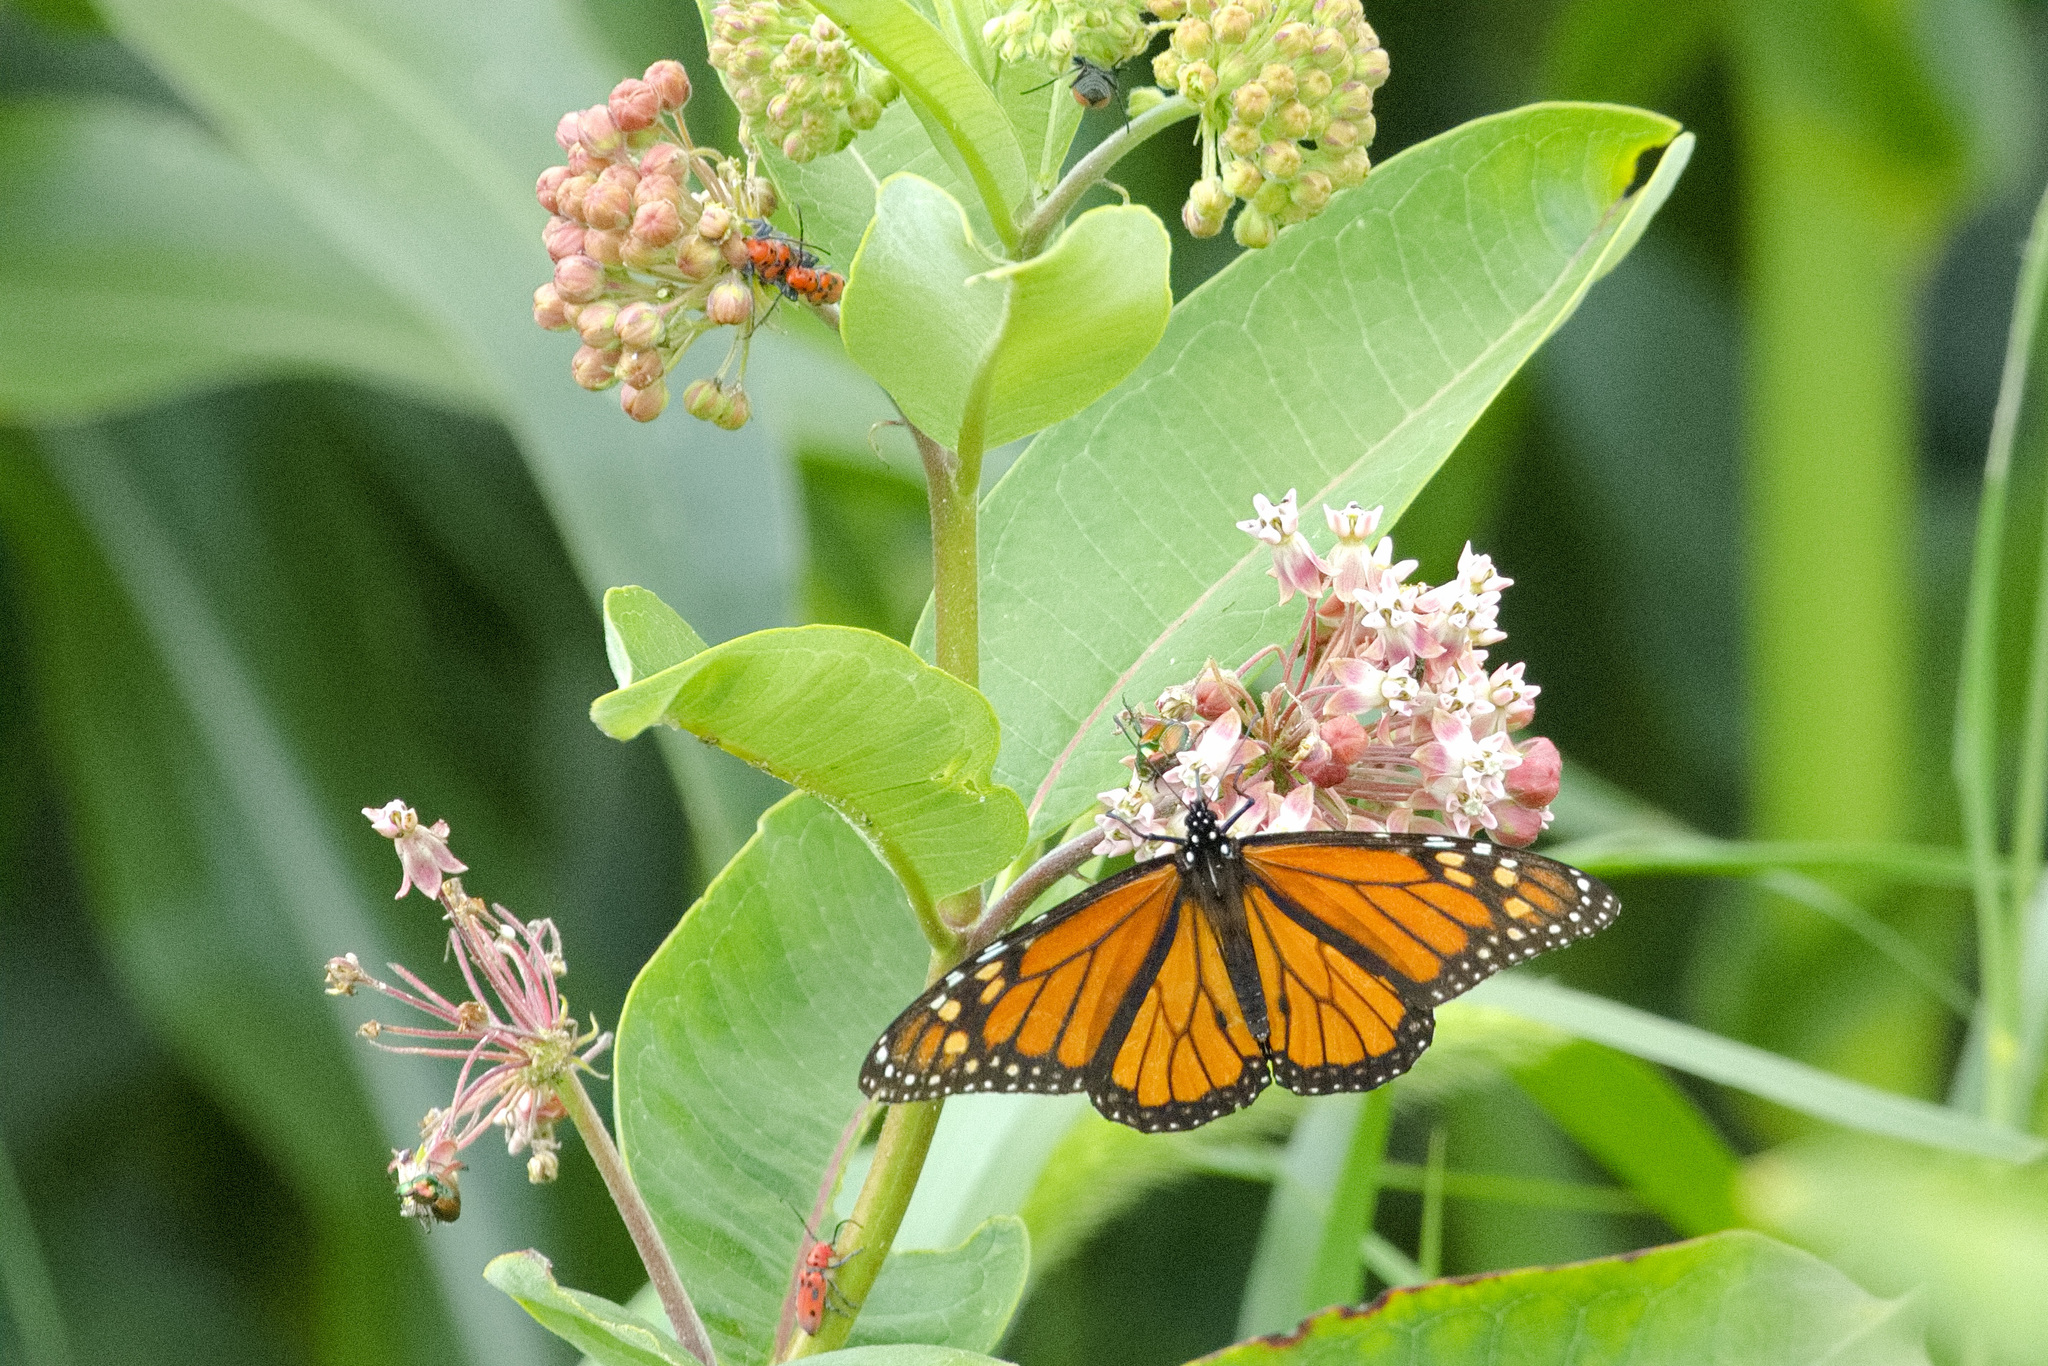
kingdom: Animalia
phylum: Arthropoda
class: Insecta
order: Lepidoptera
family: Nymphalidae
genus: Danaus
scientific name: Danaus plexippus
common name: Monarch
